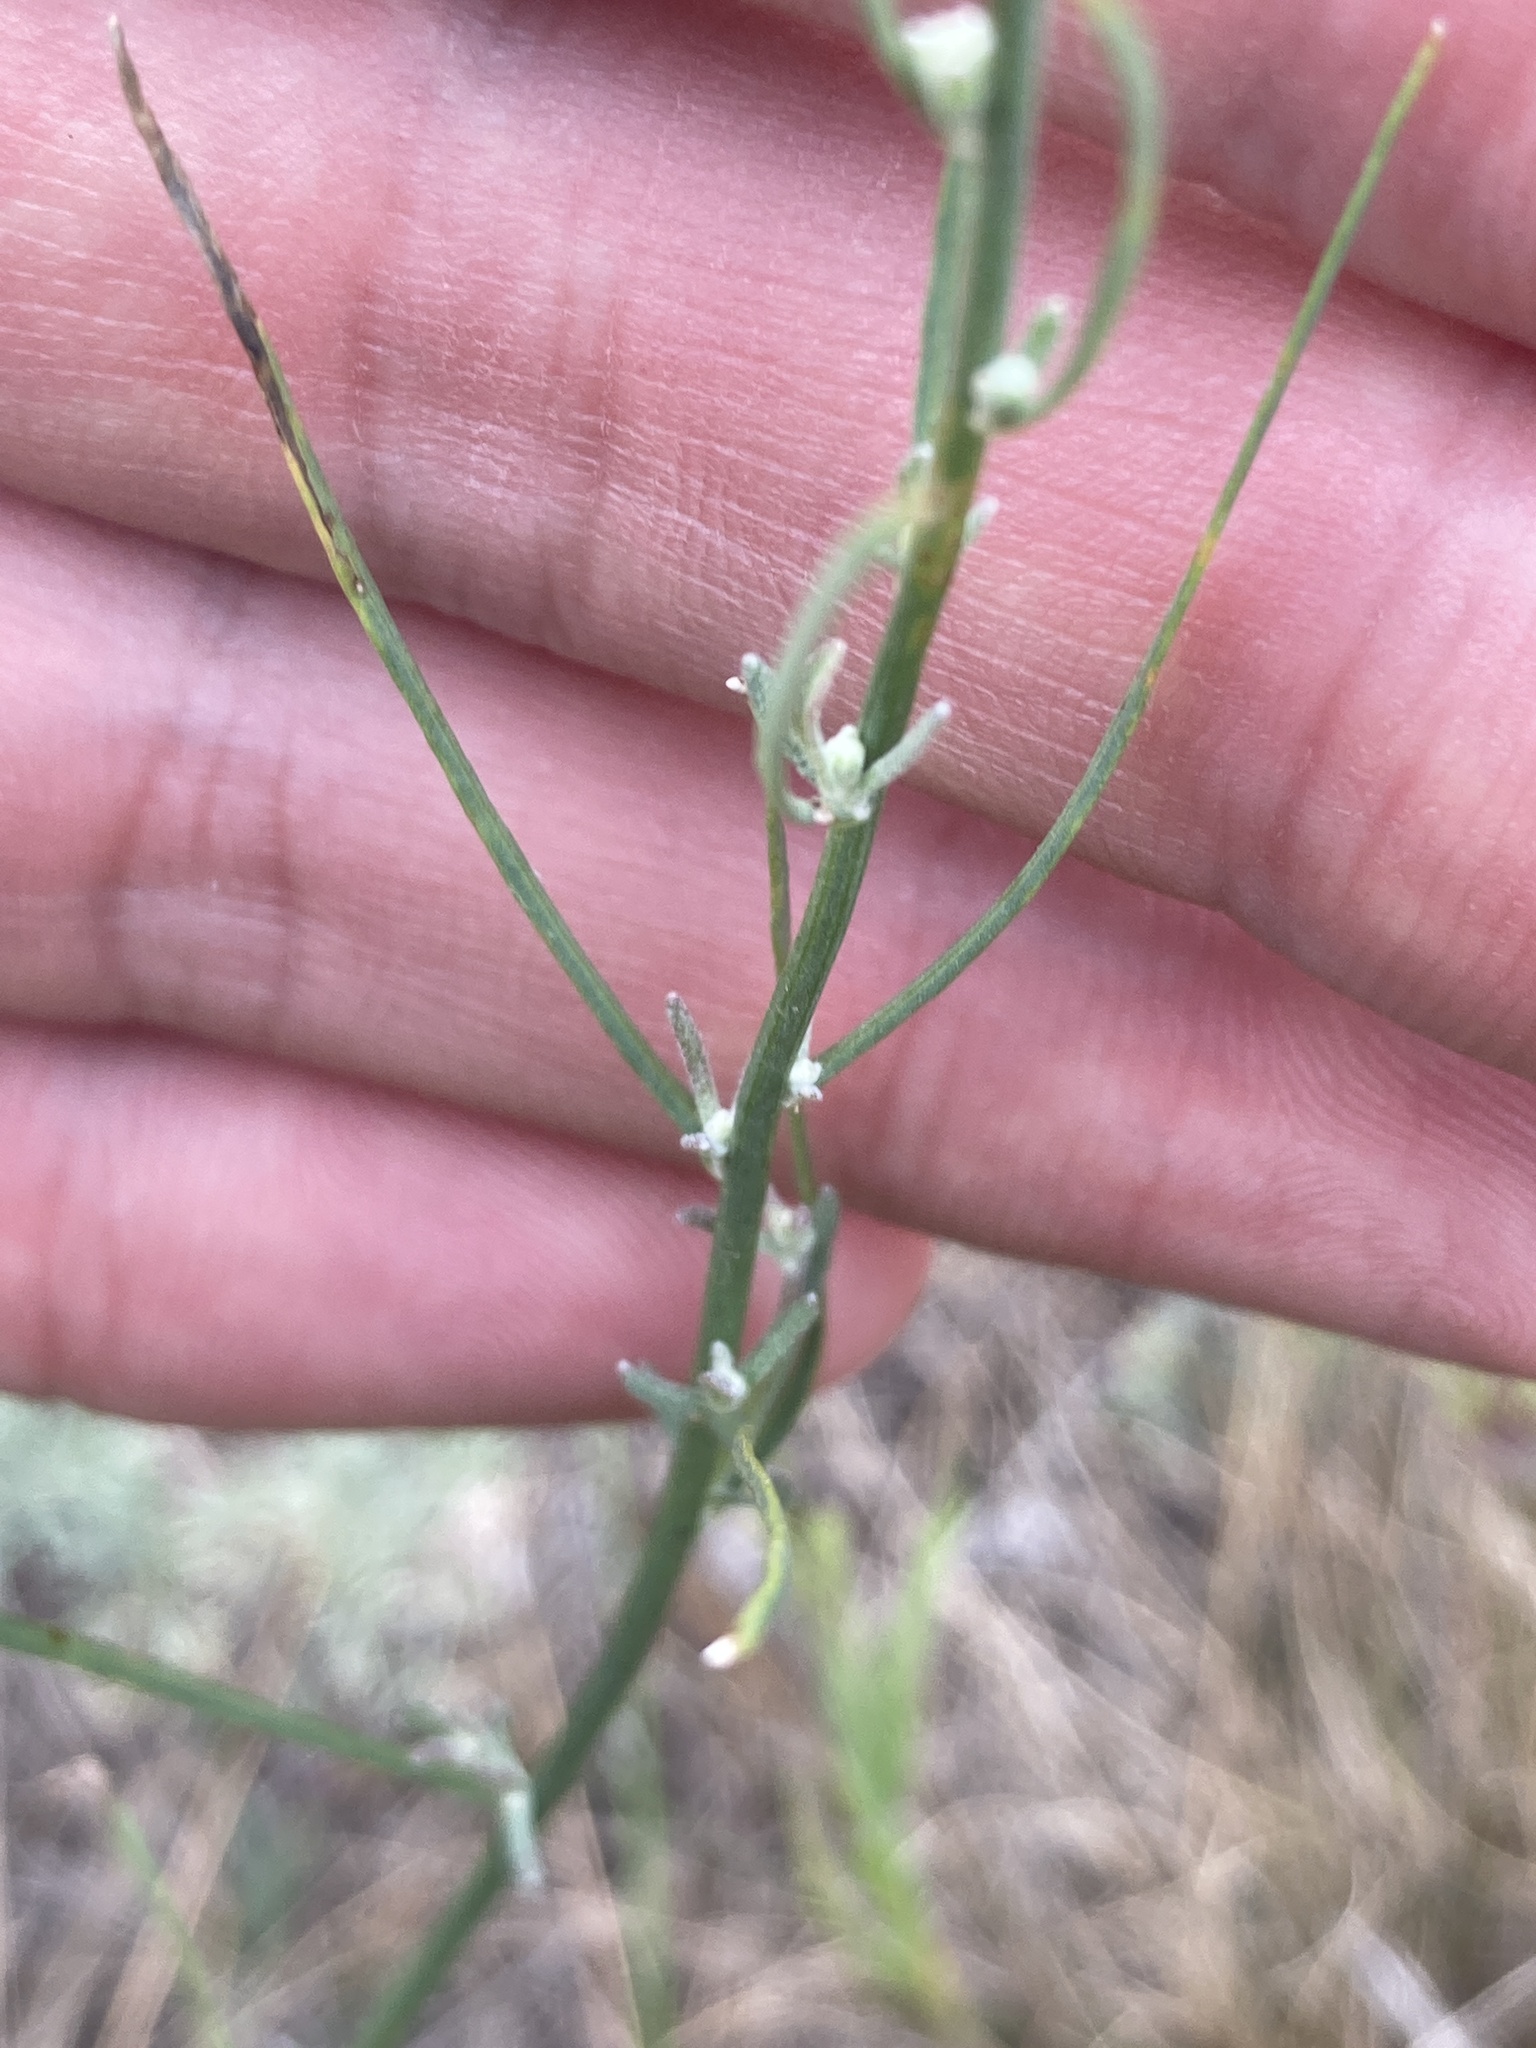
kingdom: Plantae
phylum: Tracheophyta
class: Magnoliopsida
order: Asterales
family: Asteraceae
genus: Chondrilla
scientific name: Chondrilla juncea
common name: Skeleton weed
